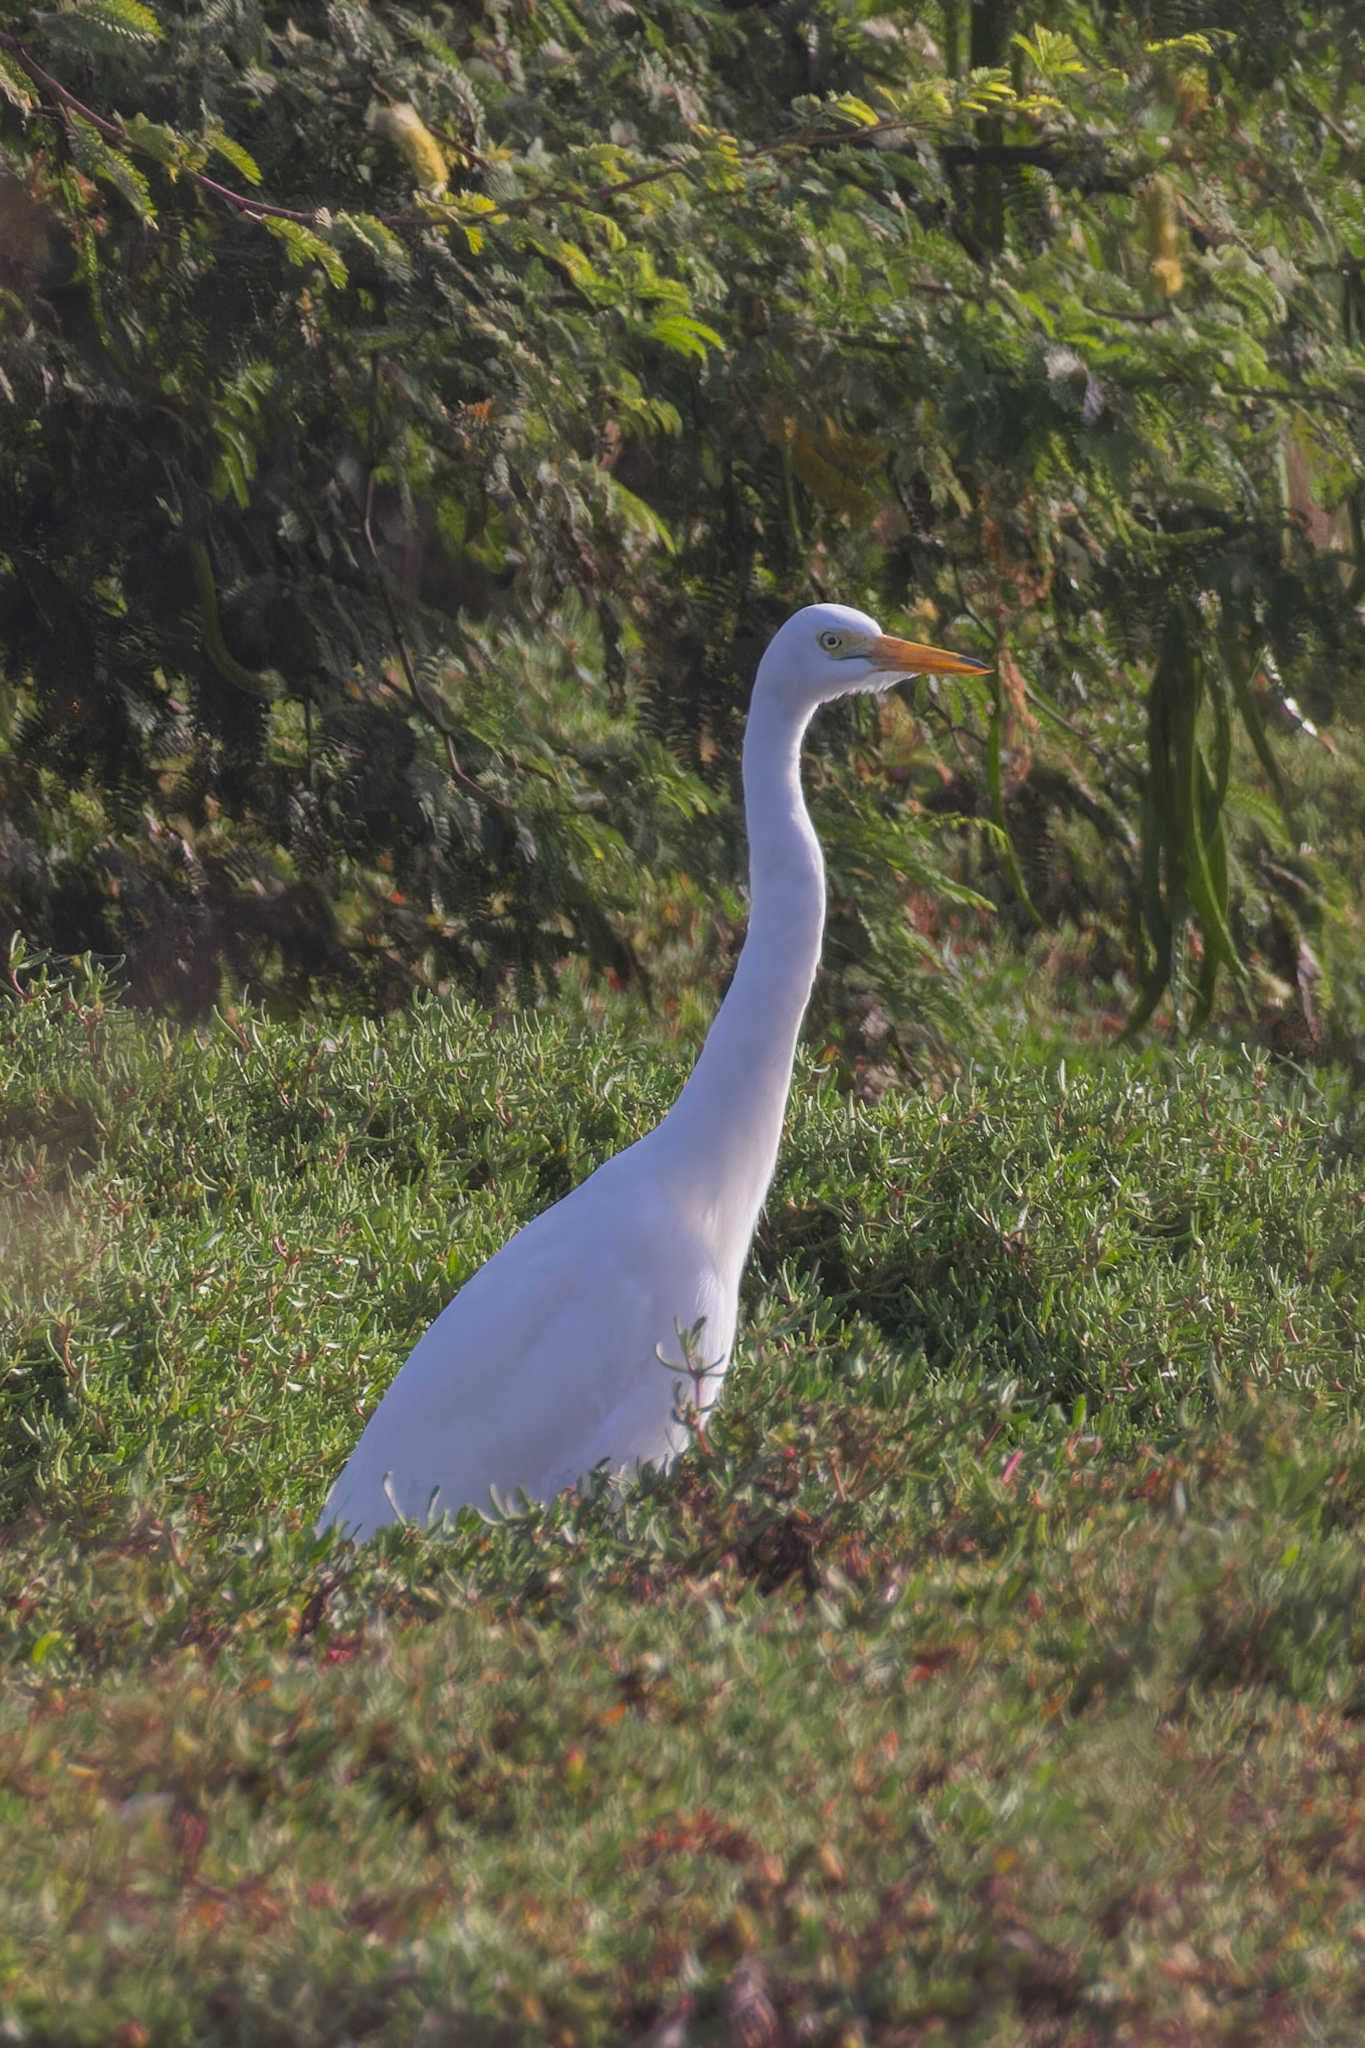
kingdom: Animalia
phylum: Chordata
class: Aves
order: Pelecaniformes
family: Ardeidae
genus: Egretta
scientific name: Egretta intermedia
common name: Intermediate egret
